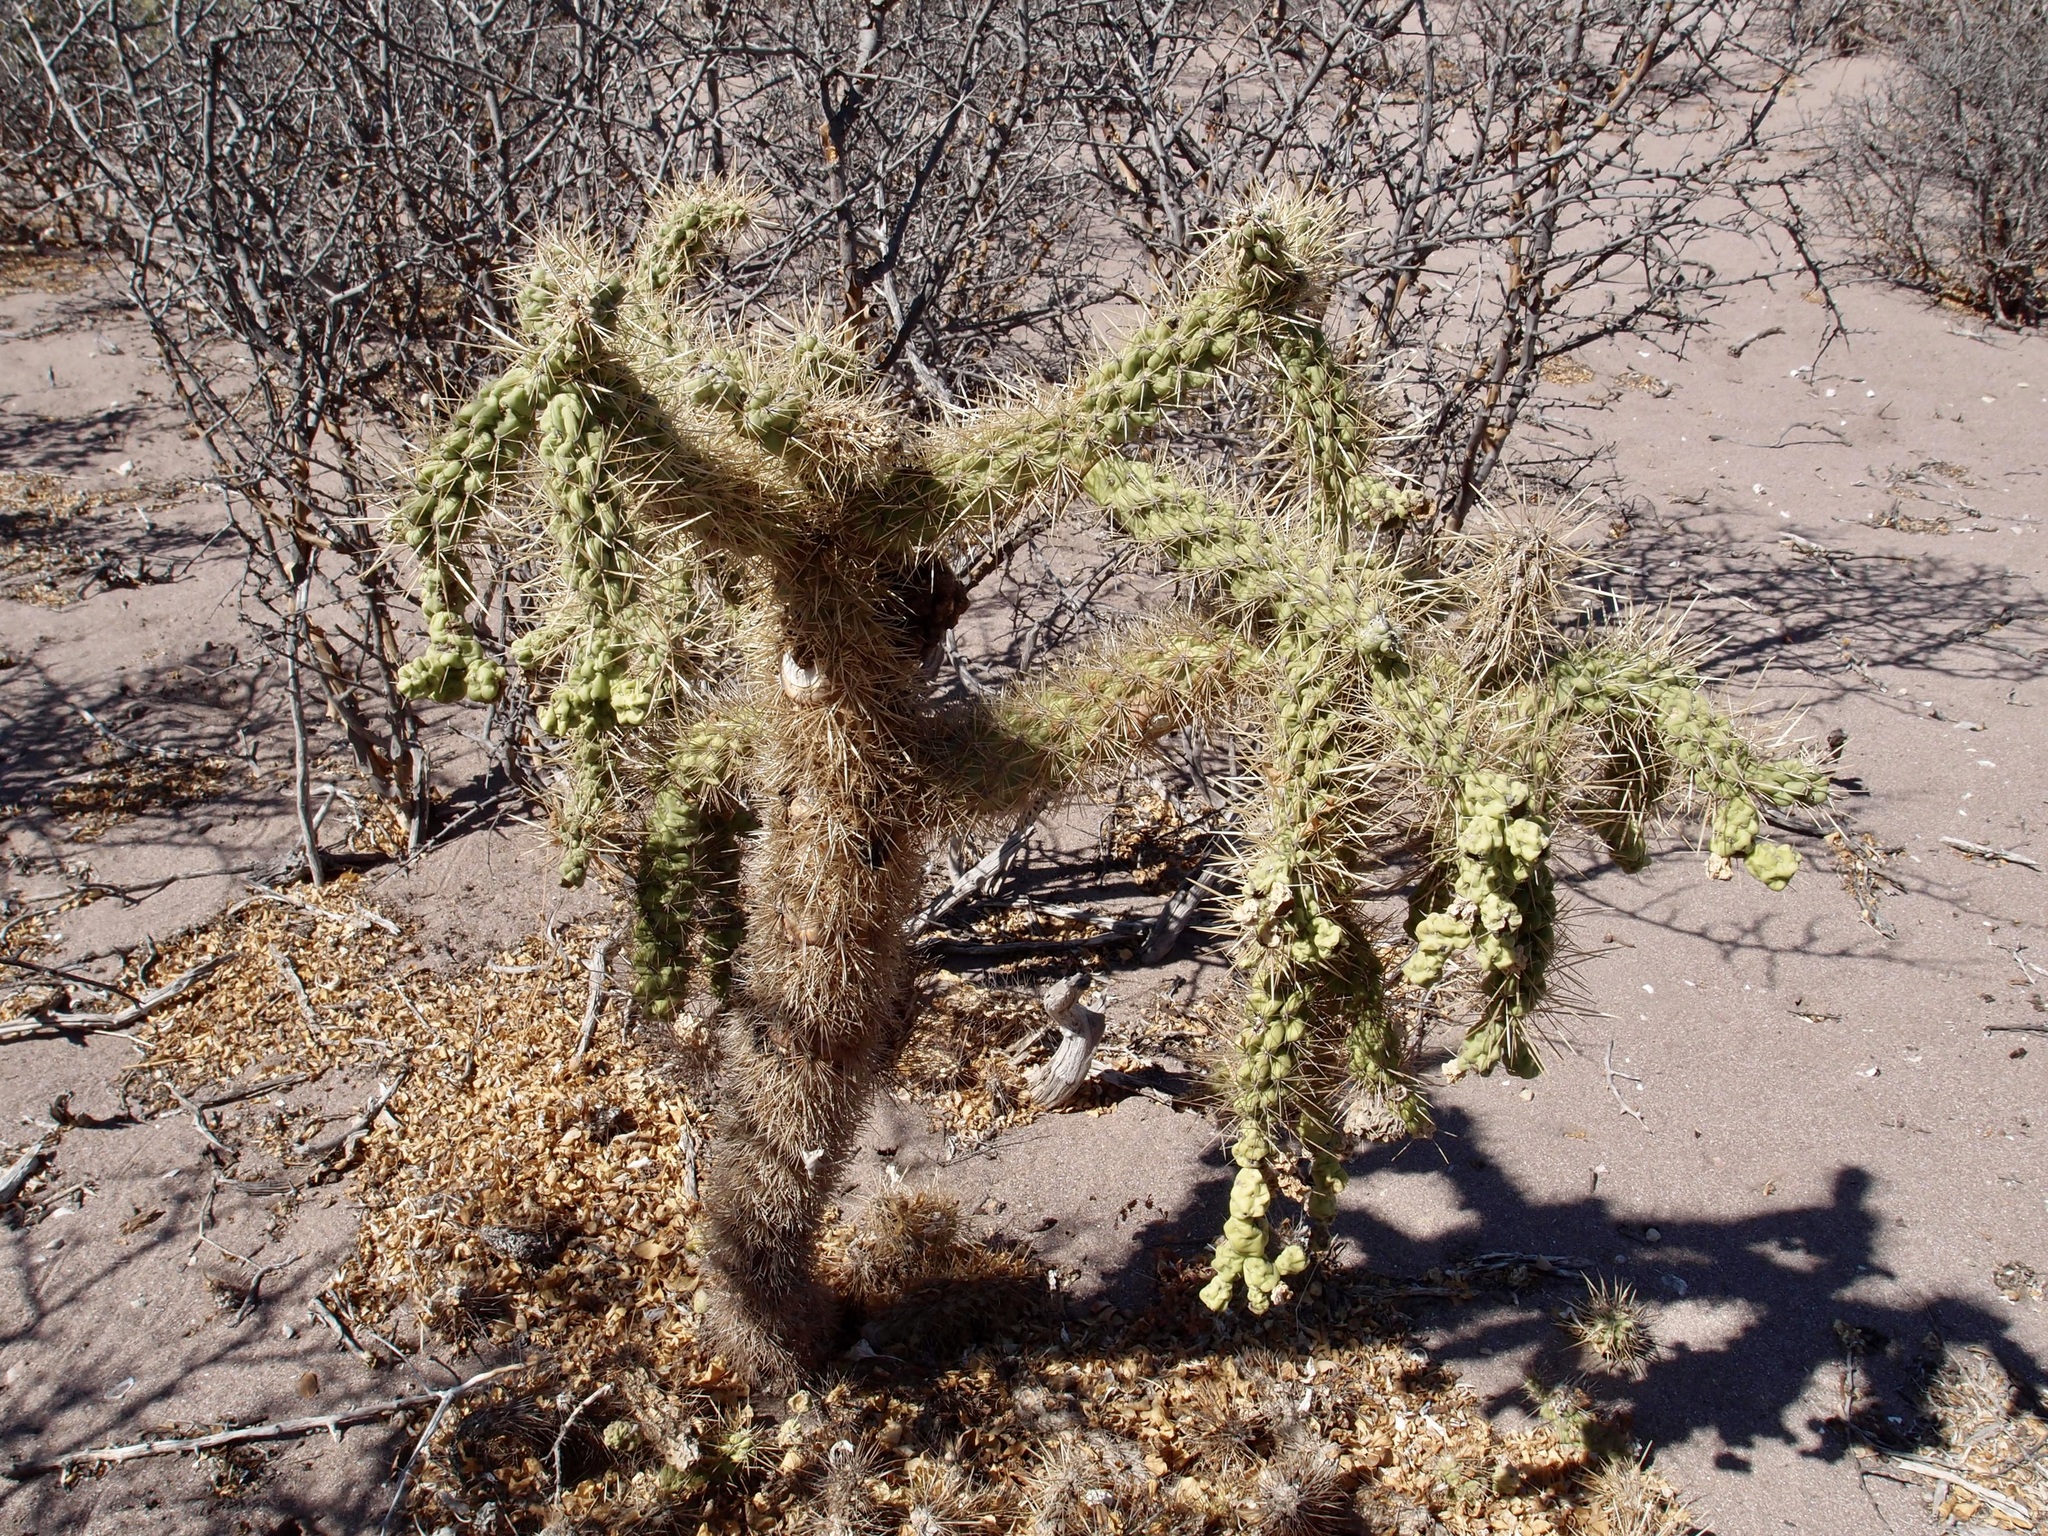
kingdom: Plantae
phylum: Tracheophyta
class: Magnoliopsida
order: Caryophyllales
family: Cactaceae
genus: Cylindropuntia
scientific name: Cylindropuntia fulgida
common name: Jumping cholla
